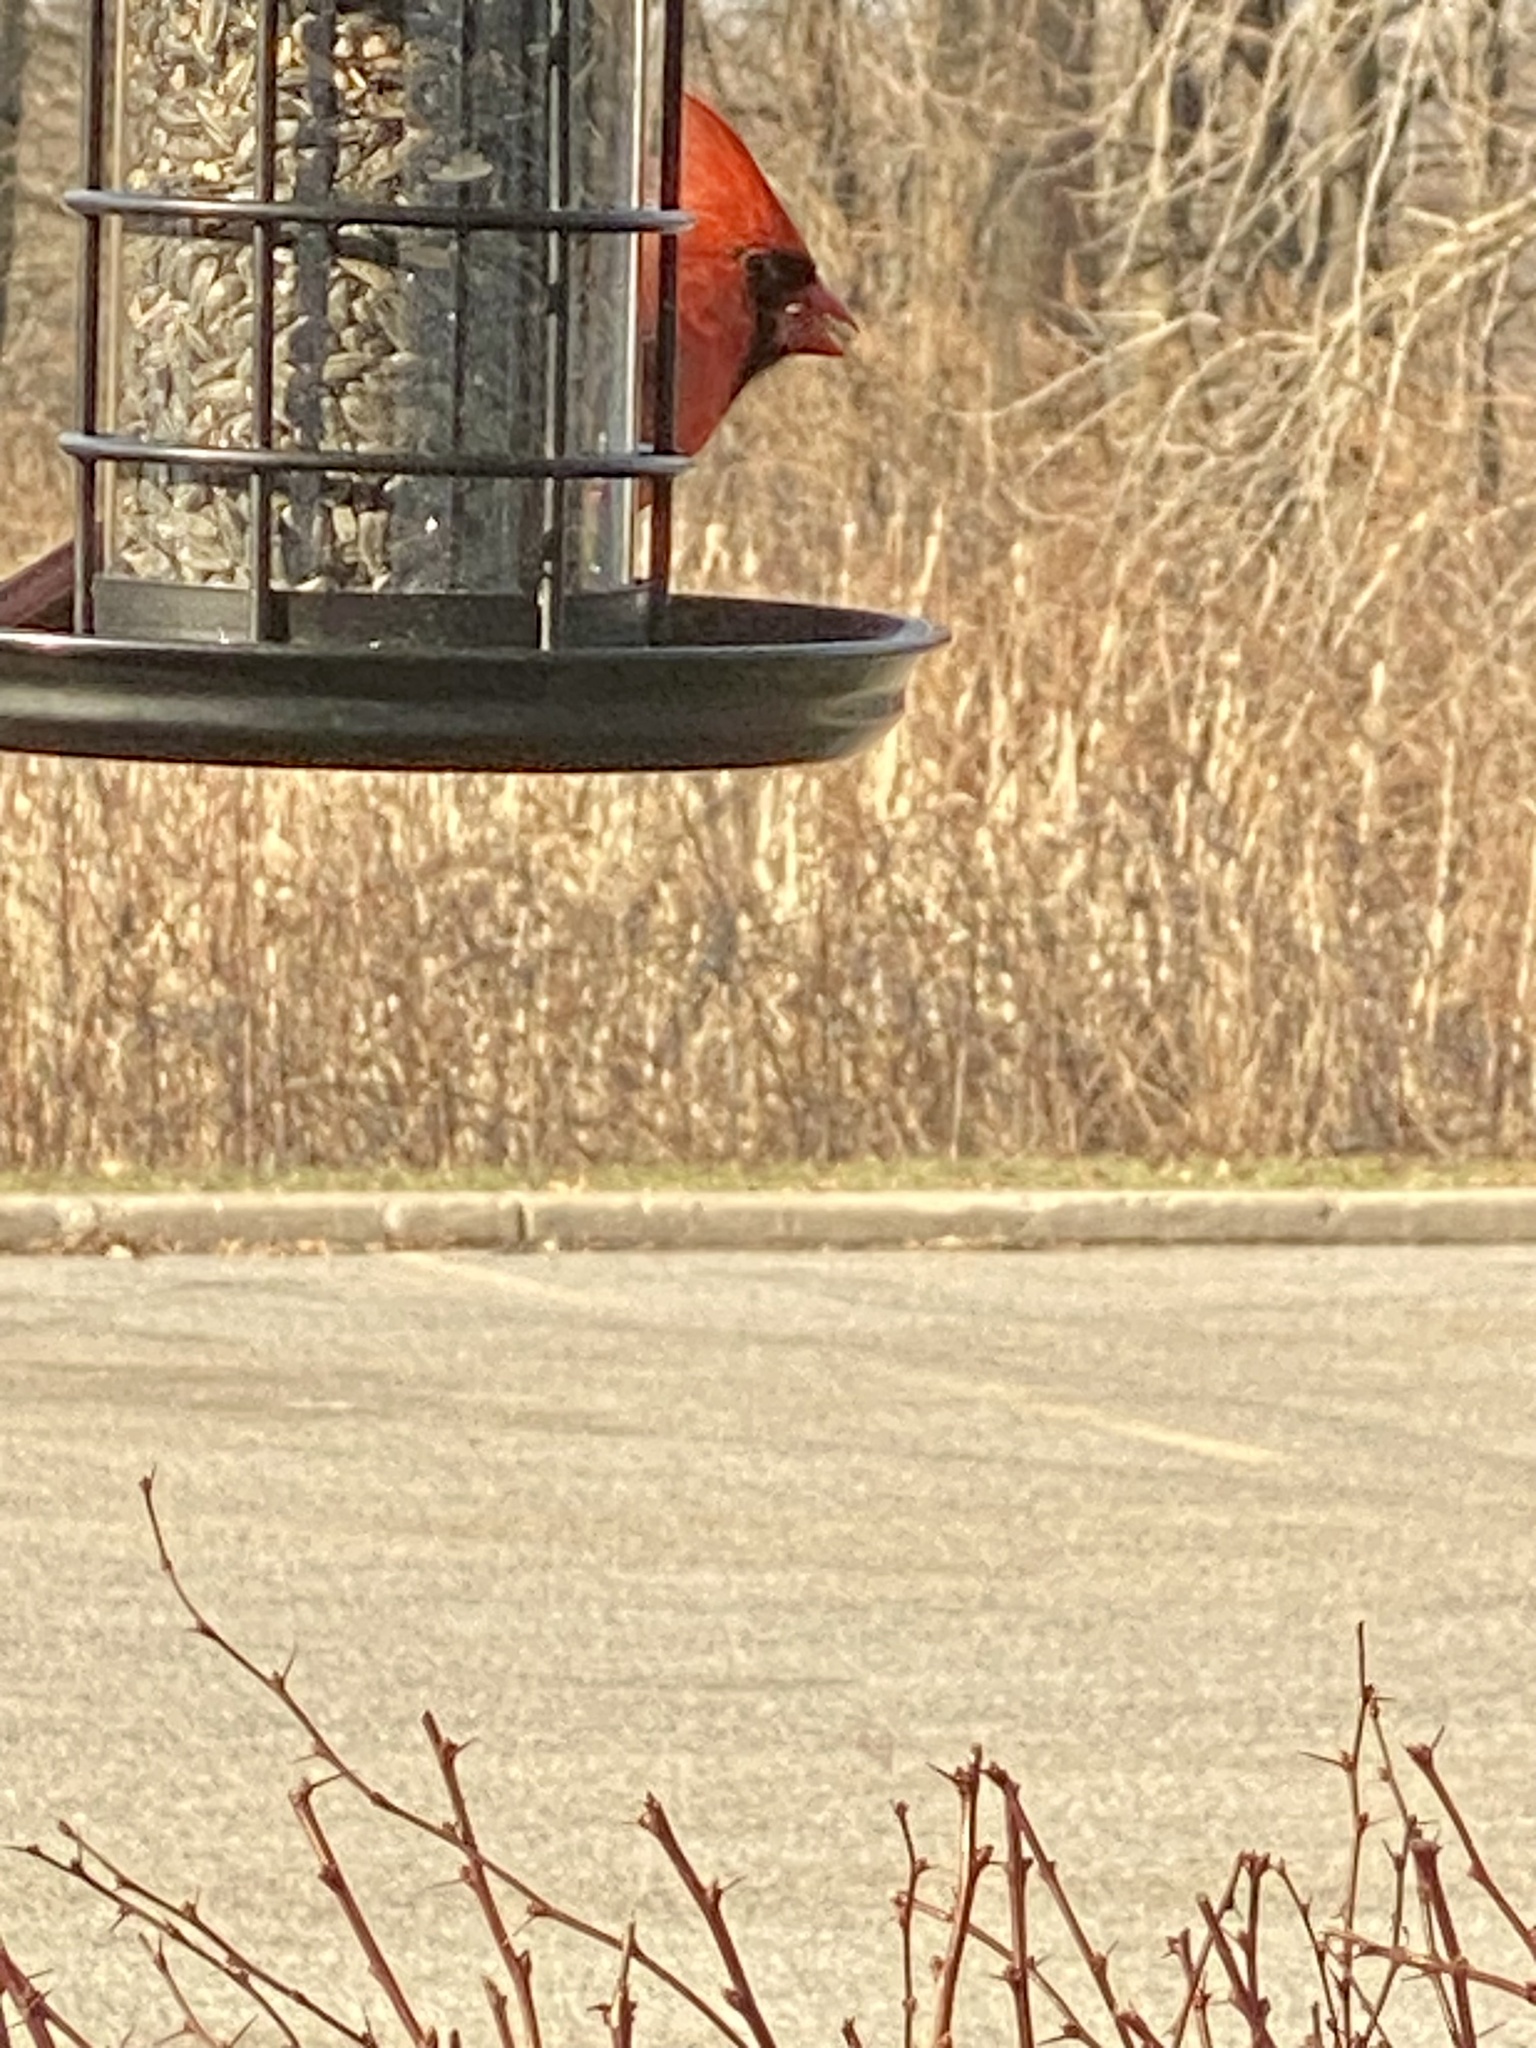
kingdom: Animalia
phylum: Chordata
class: Aves
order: Passeriformes
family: Cardinalidae
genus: Cardinalis
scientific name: Cardinalis cardinalis
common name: Northern cardinal
